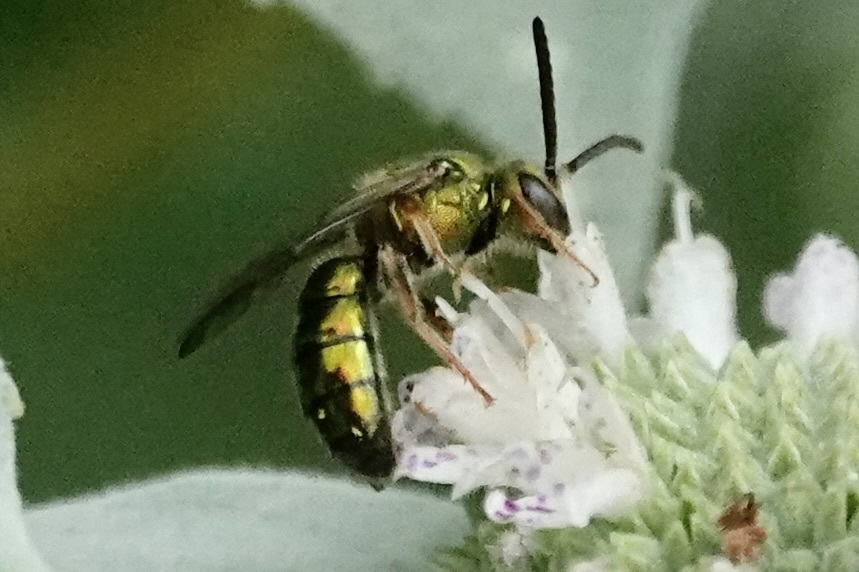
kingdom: Animalia
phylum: Arthropoda
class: Insecta
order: Hymenoptera
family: Halictidae
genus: Augochlora
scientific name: Augochlora pura
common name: Pure green sweat bee
